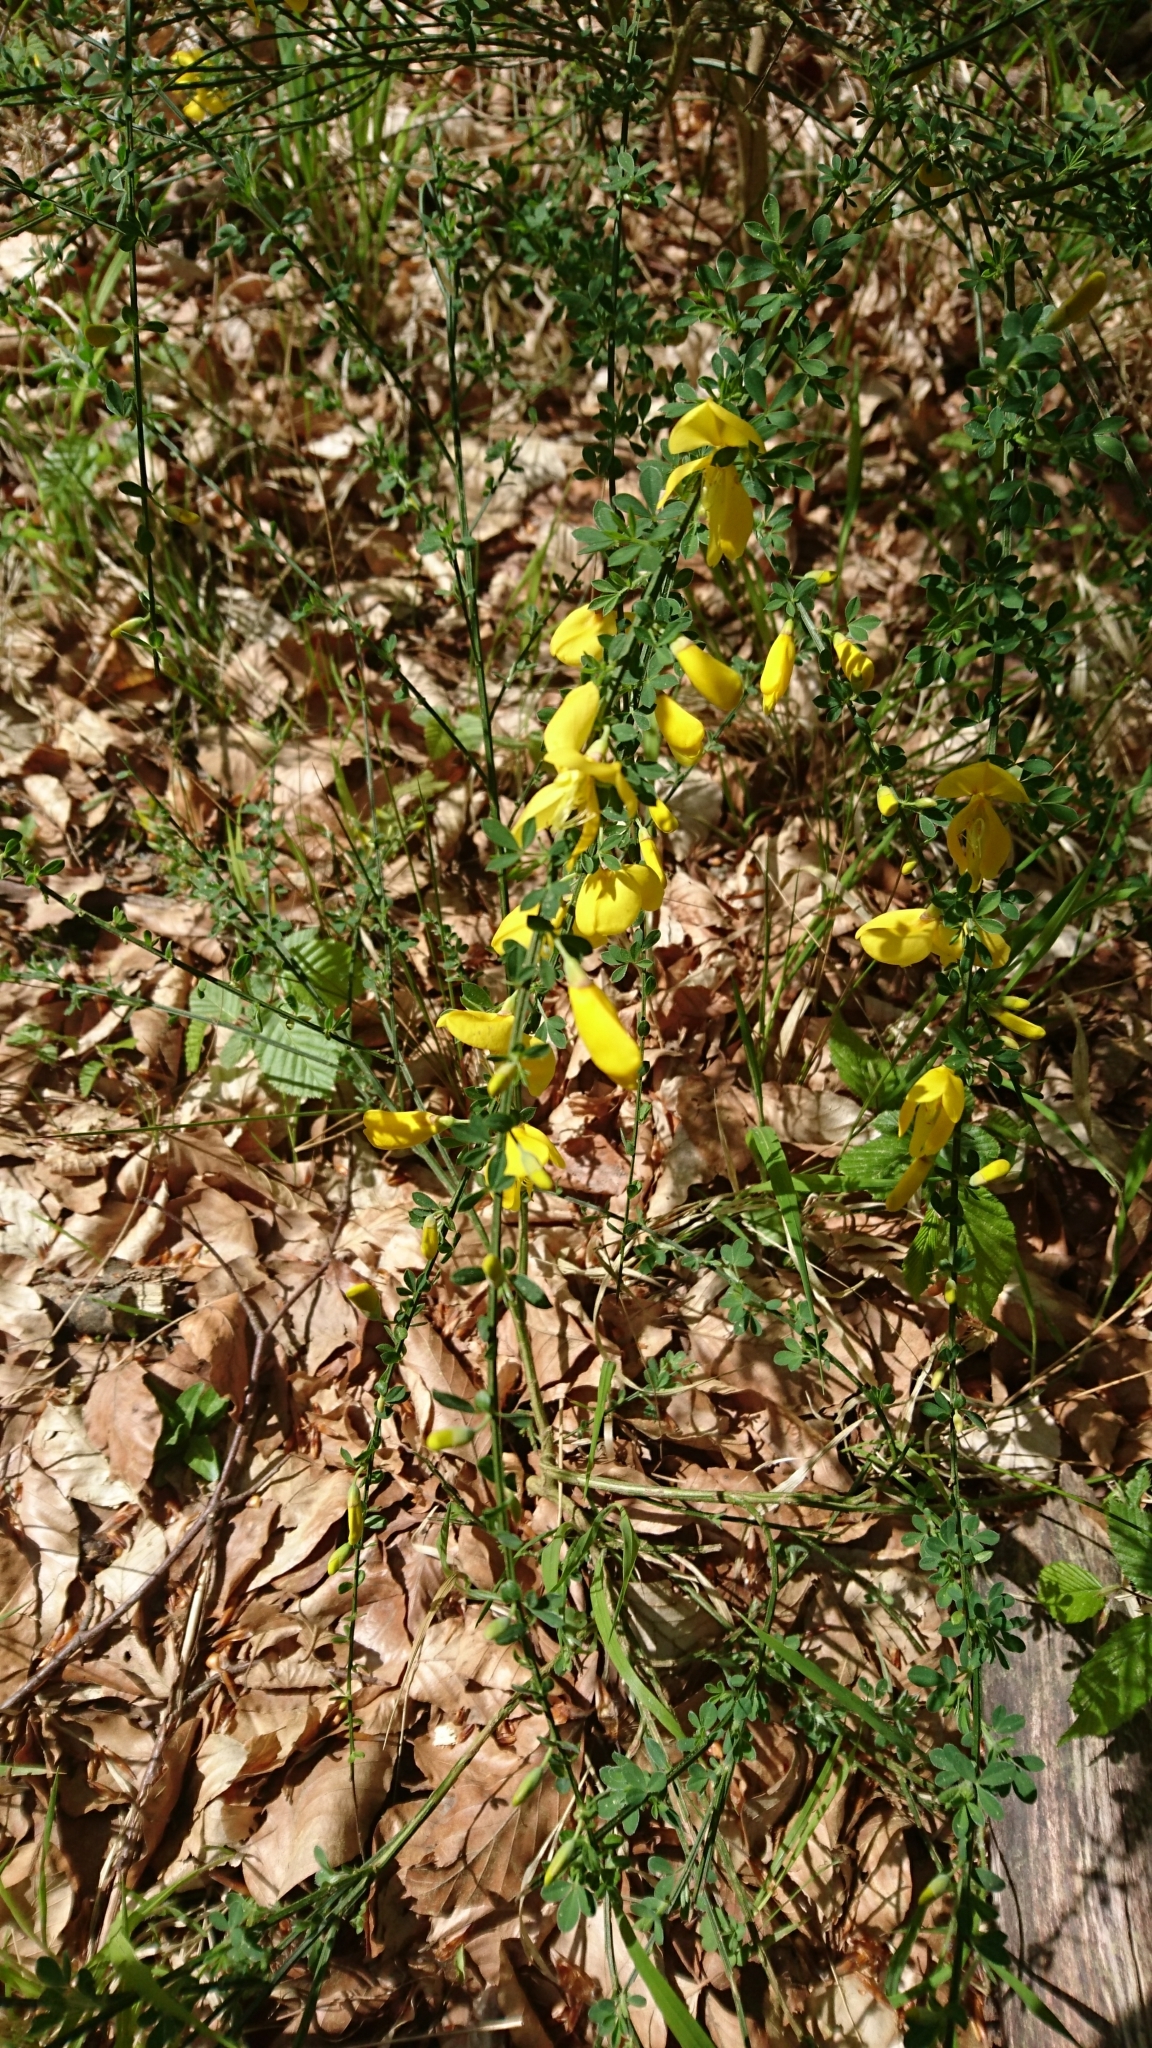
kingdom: Plantae
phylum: Tracheophyta
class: Magnoliopsida
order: Fabales
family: Fabaceae
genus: Cytisus
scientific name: Cytisus scoparius
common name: Scotch broom
